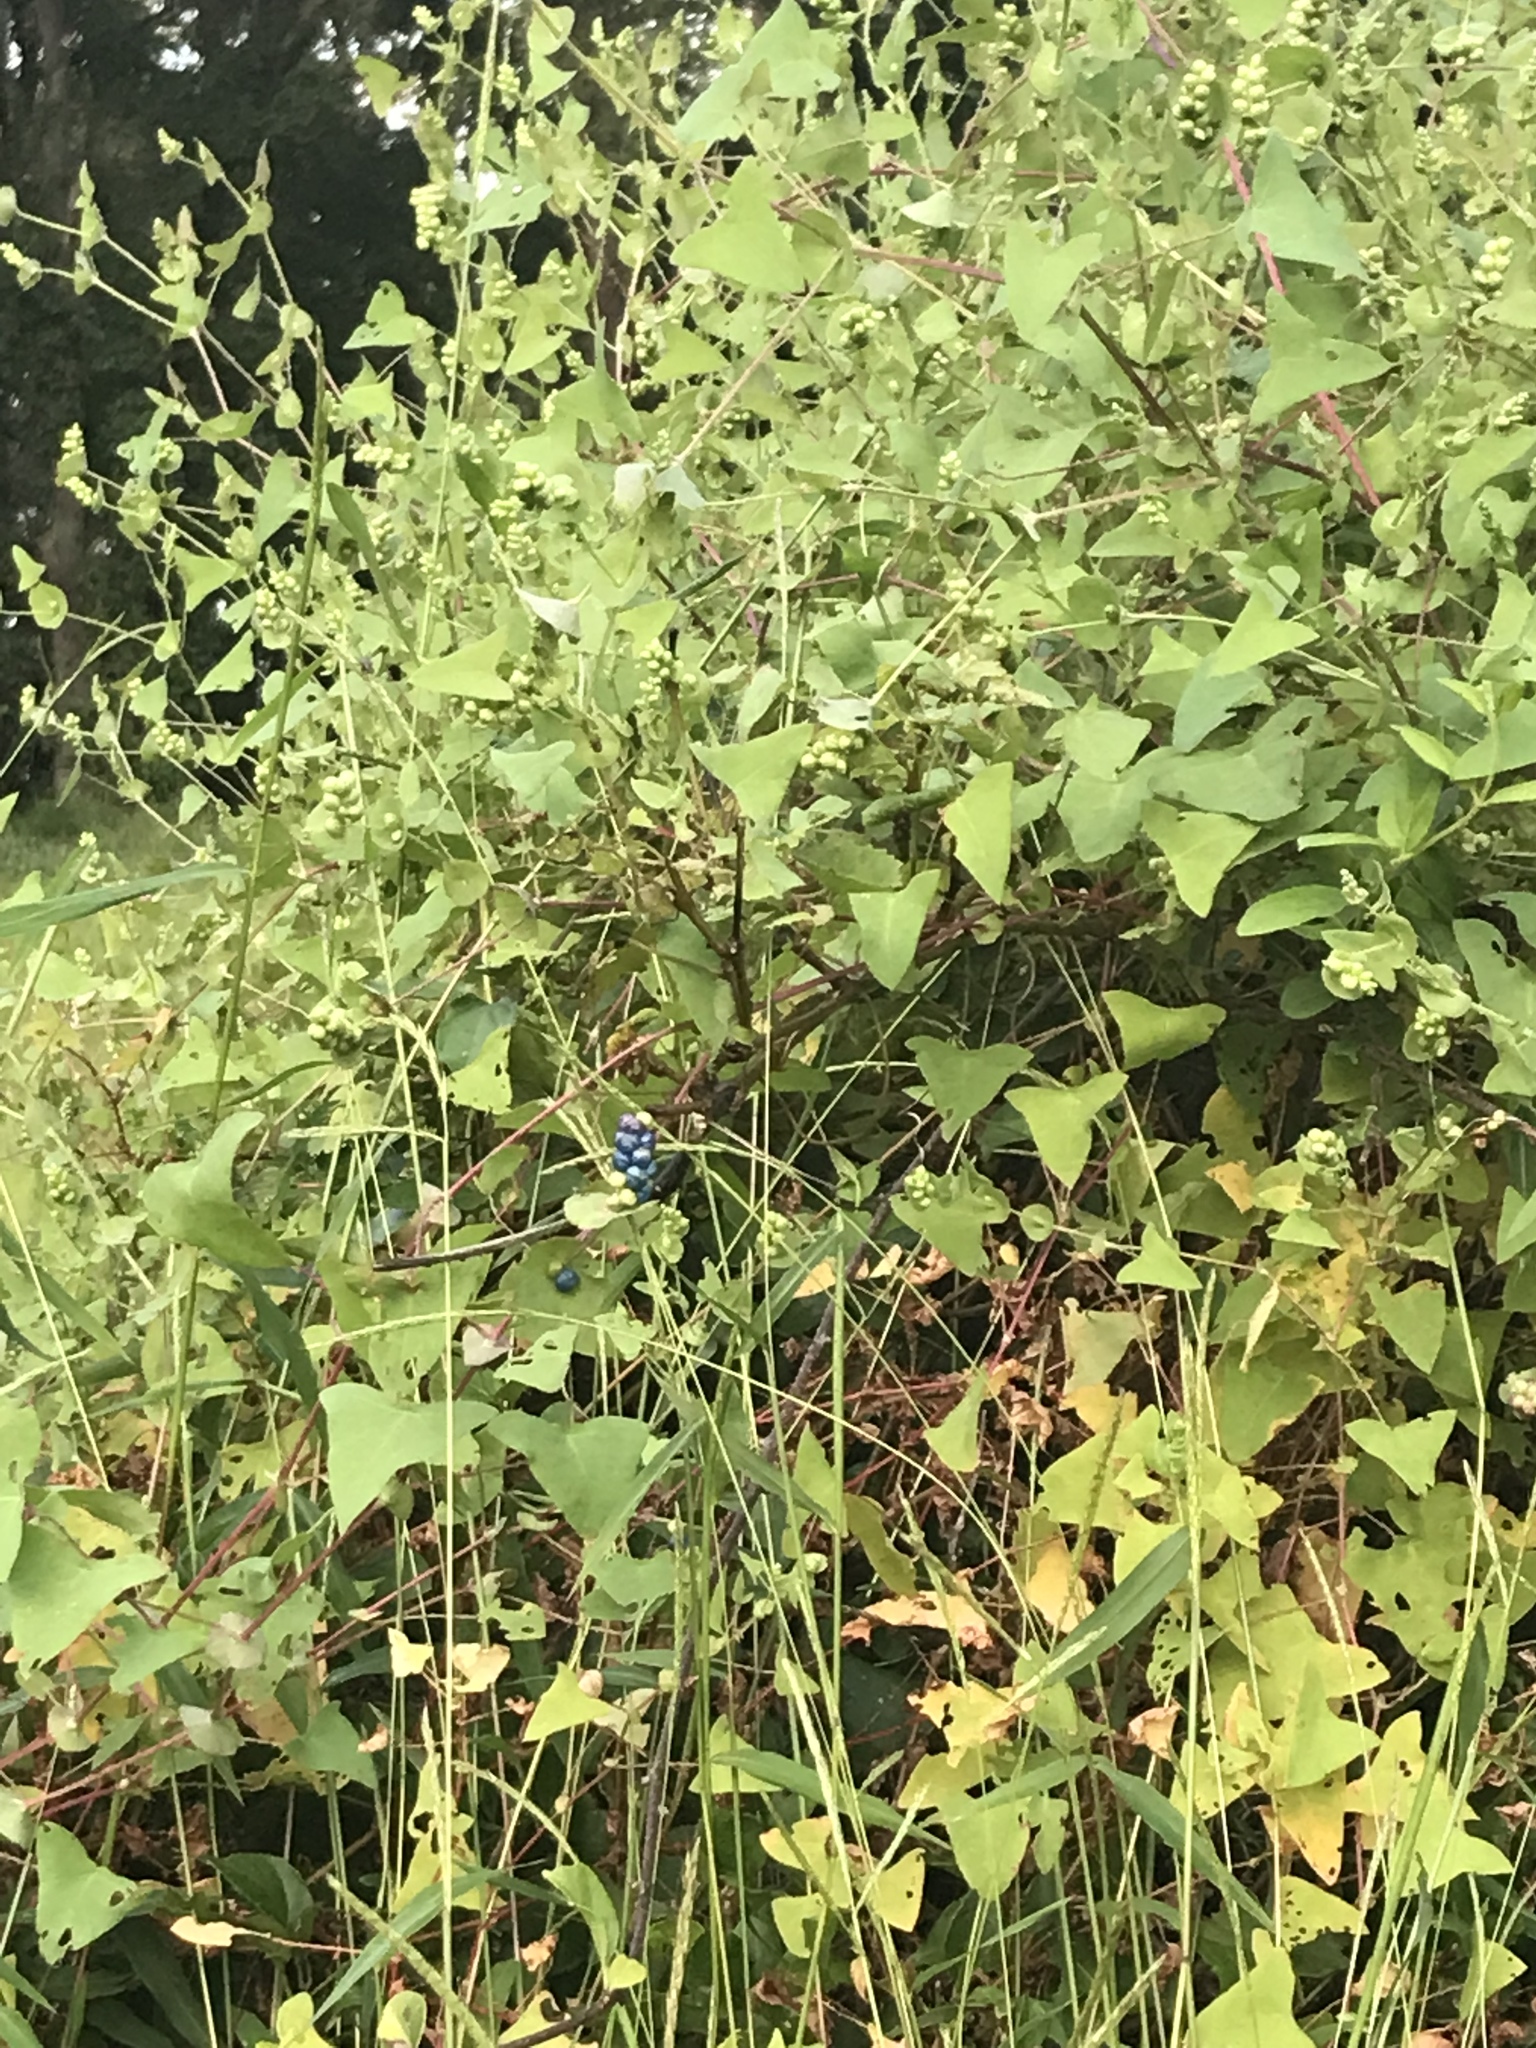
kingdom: Plantae
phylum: Tracheophyta
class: Magnoliopsida
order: Caryophyllales
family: Polygonaceae
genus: Persicaria
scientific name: Persicaria perfoliata
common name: Asiatic tearthumb
